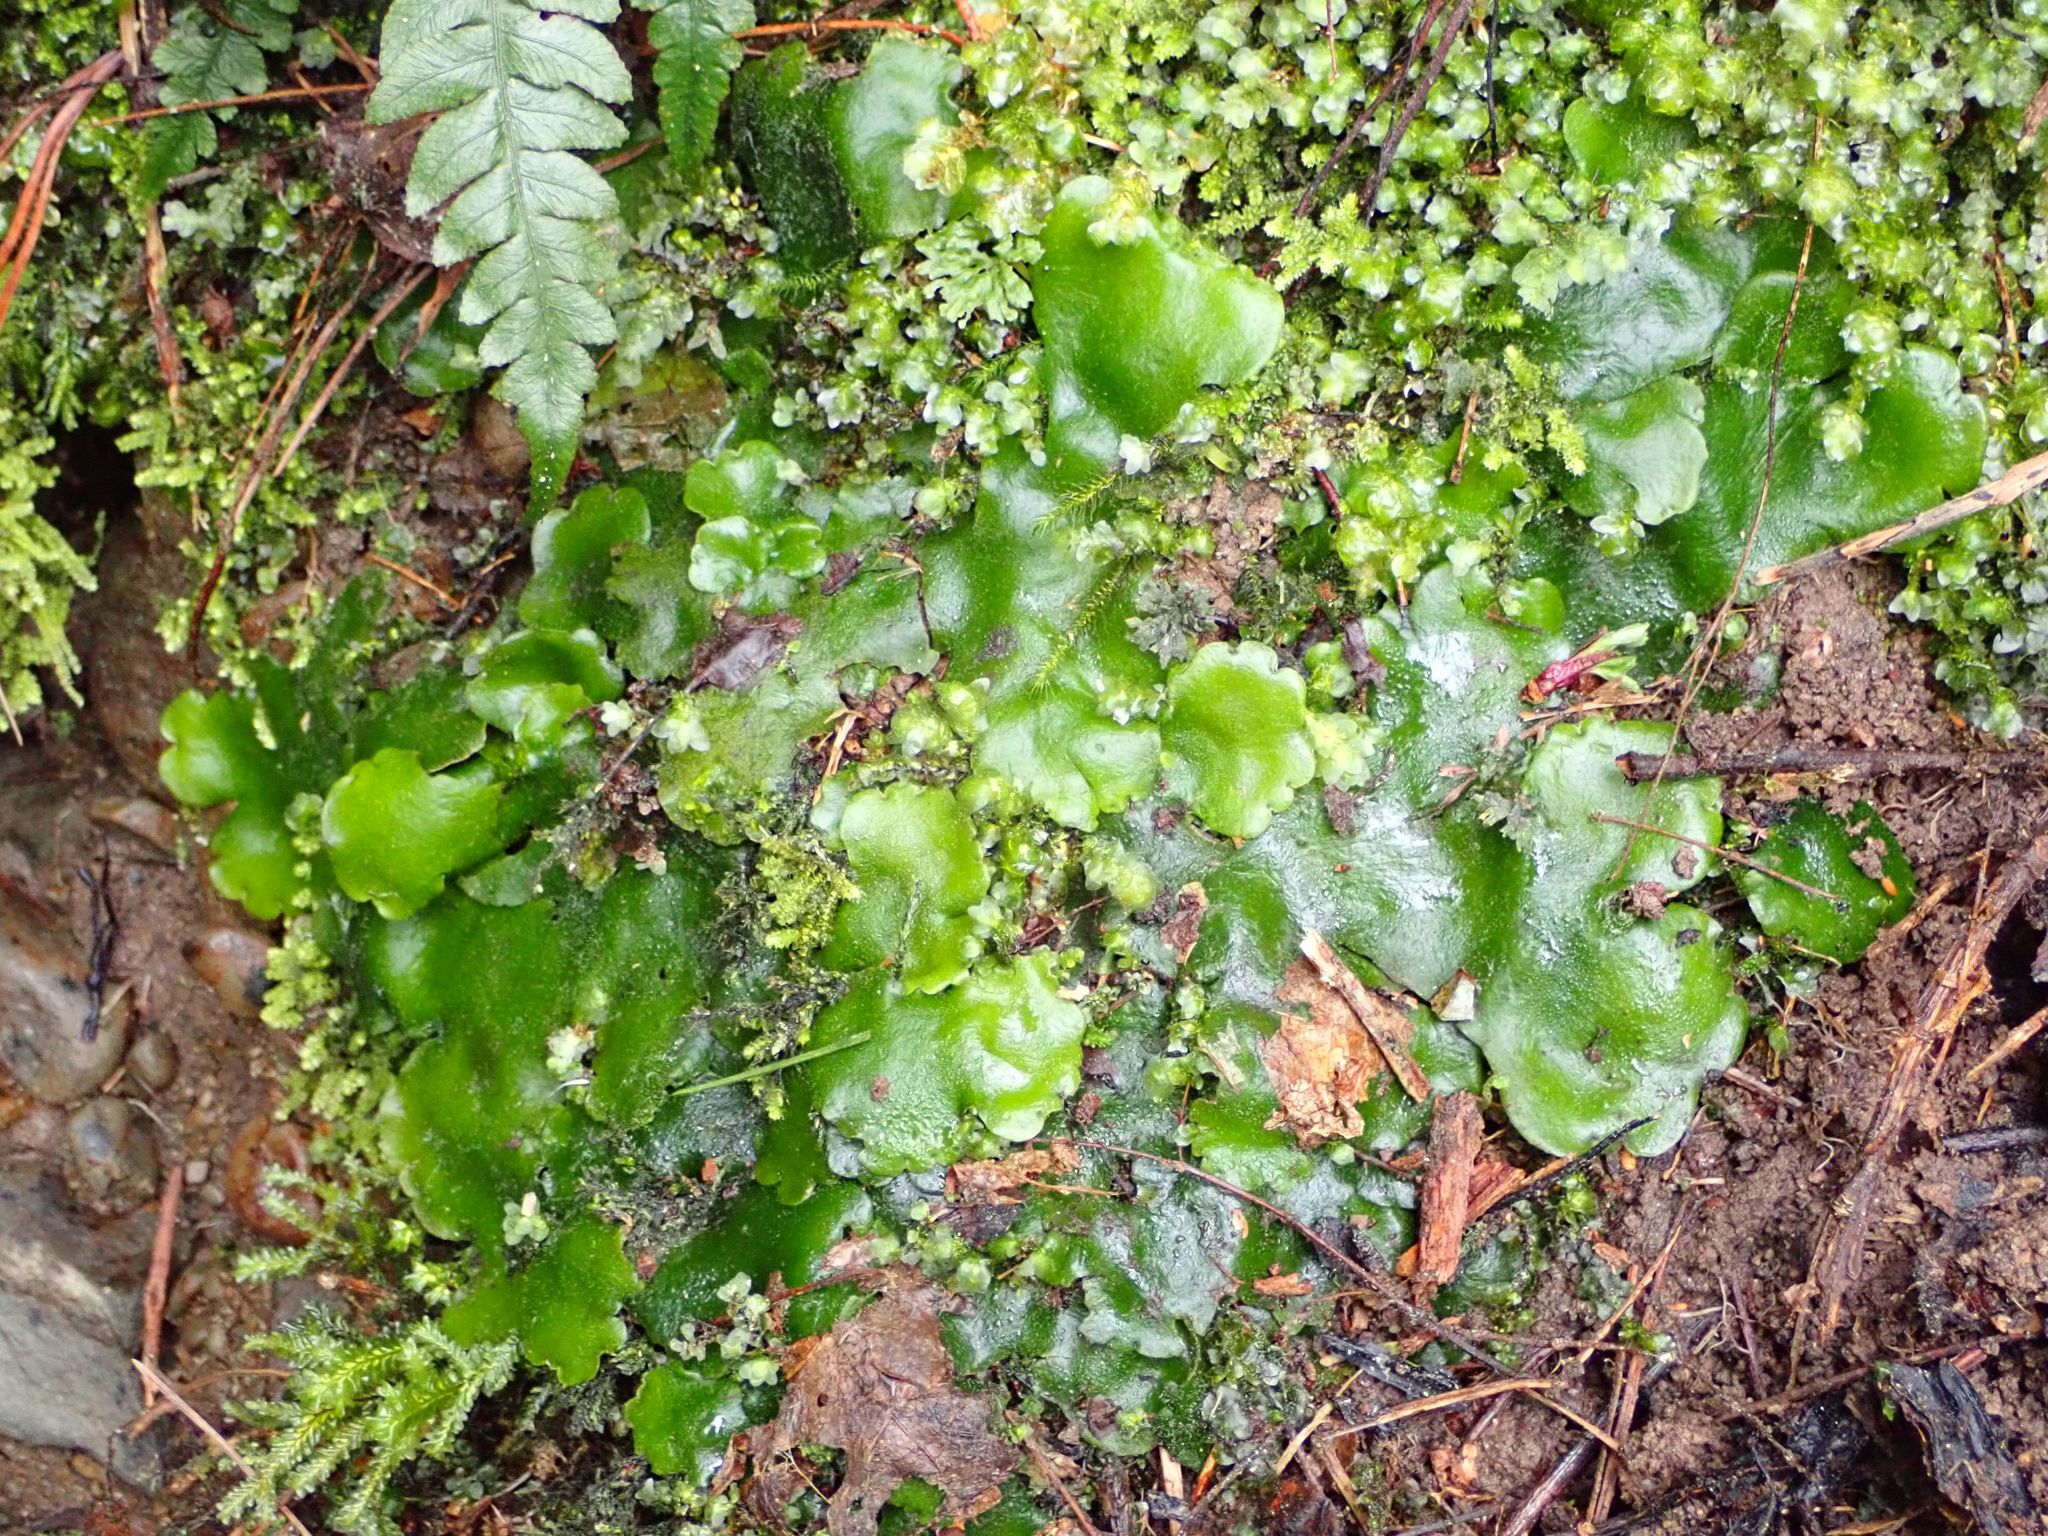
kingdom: Plantae
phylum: Marchantiophyta
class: Marchantiopsida
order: Marchantiales
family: Monocleaceae
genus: Monoclea
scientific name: Monoclea forsteri
